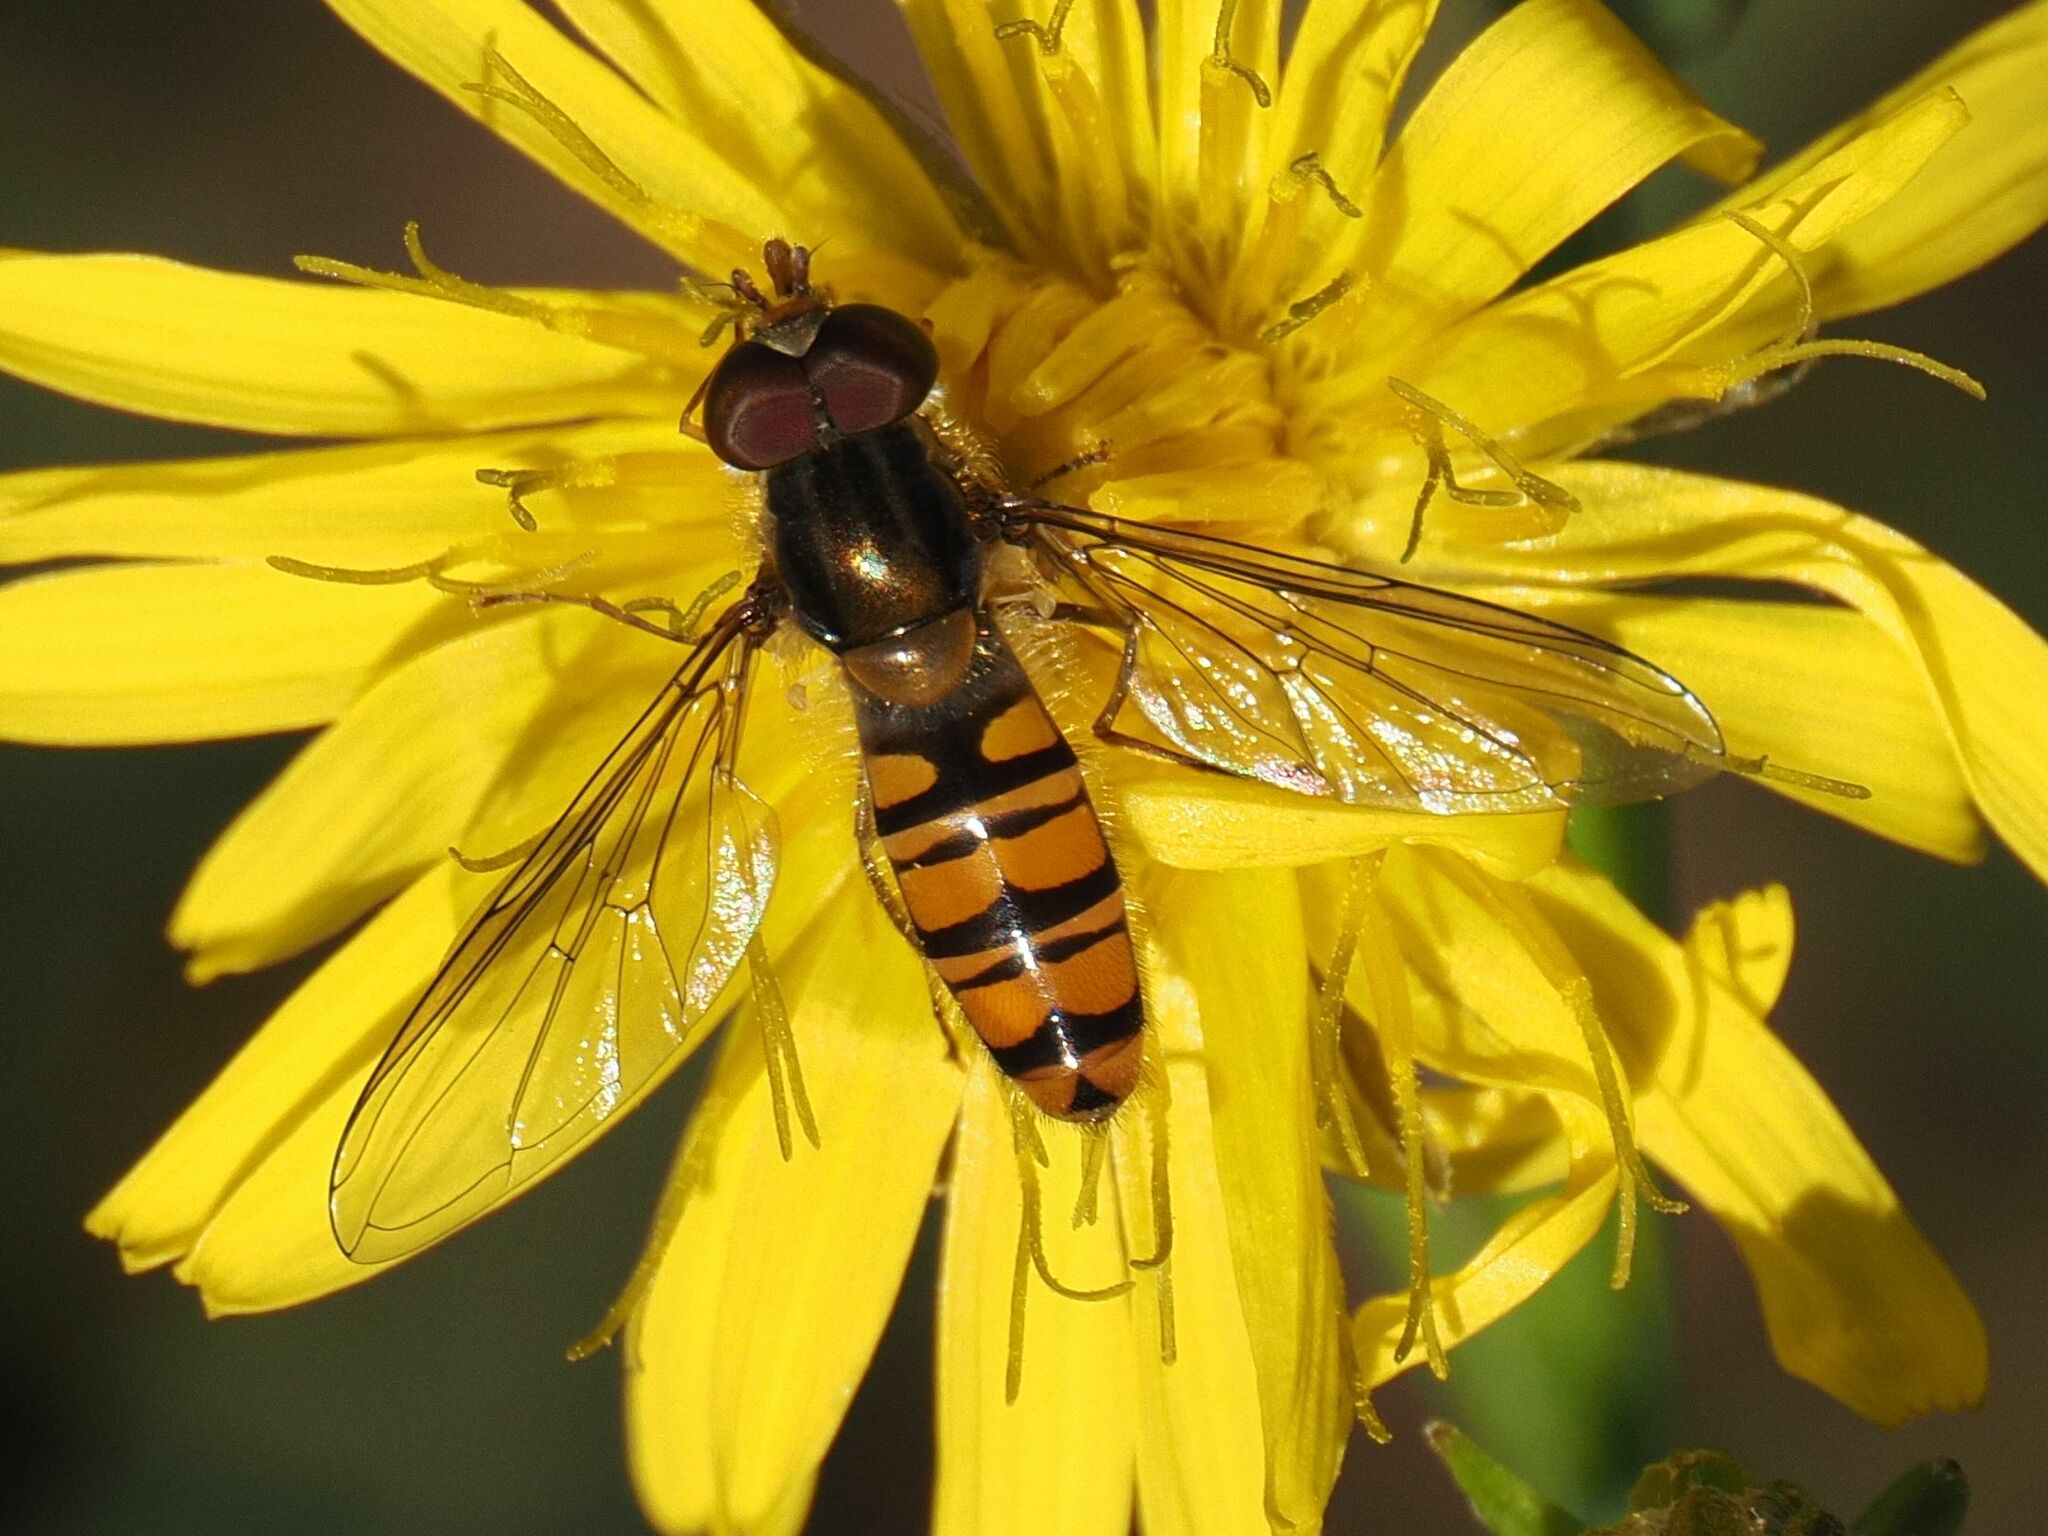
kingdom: Animalia
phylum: Arthropoda
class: Insecta
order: Diptera
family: Syrphidae
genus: Episyrphus
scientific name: Episyrphus balteatus
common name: Marmalade hoverfly
